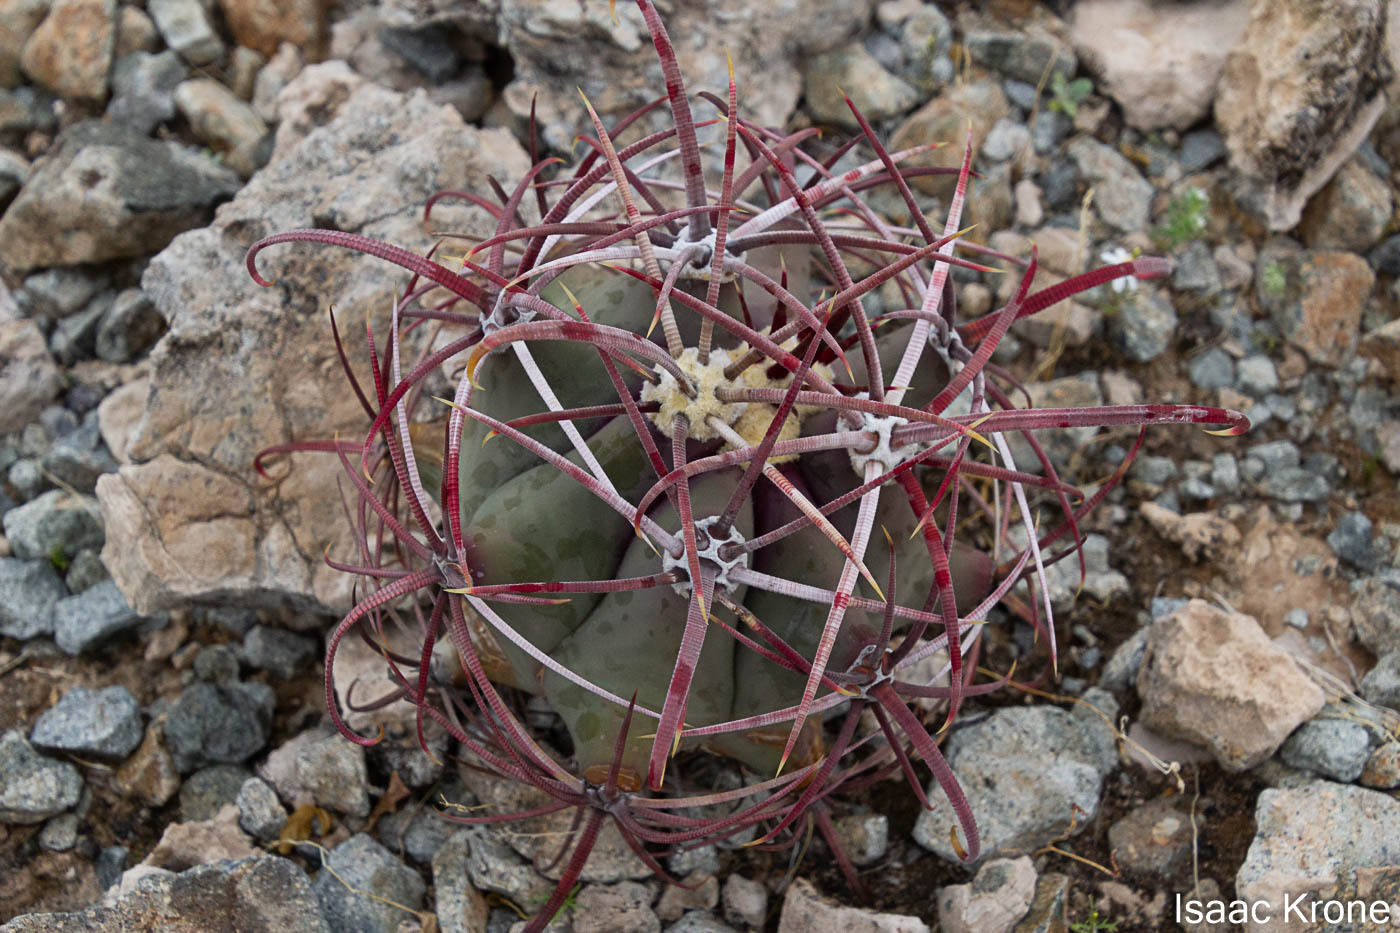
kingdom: Plantae
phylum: Tracheophyta
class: Magnoliopsida
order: Caryophyllales
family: Cactaceae
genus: Ferocactus
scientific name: Ferocactus emoryi
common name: Emory's barrel cactus
